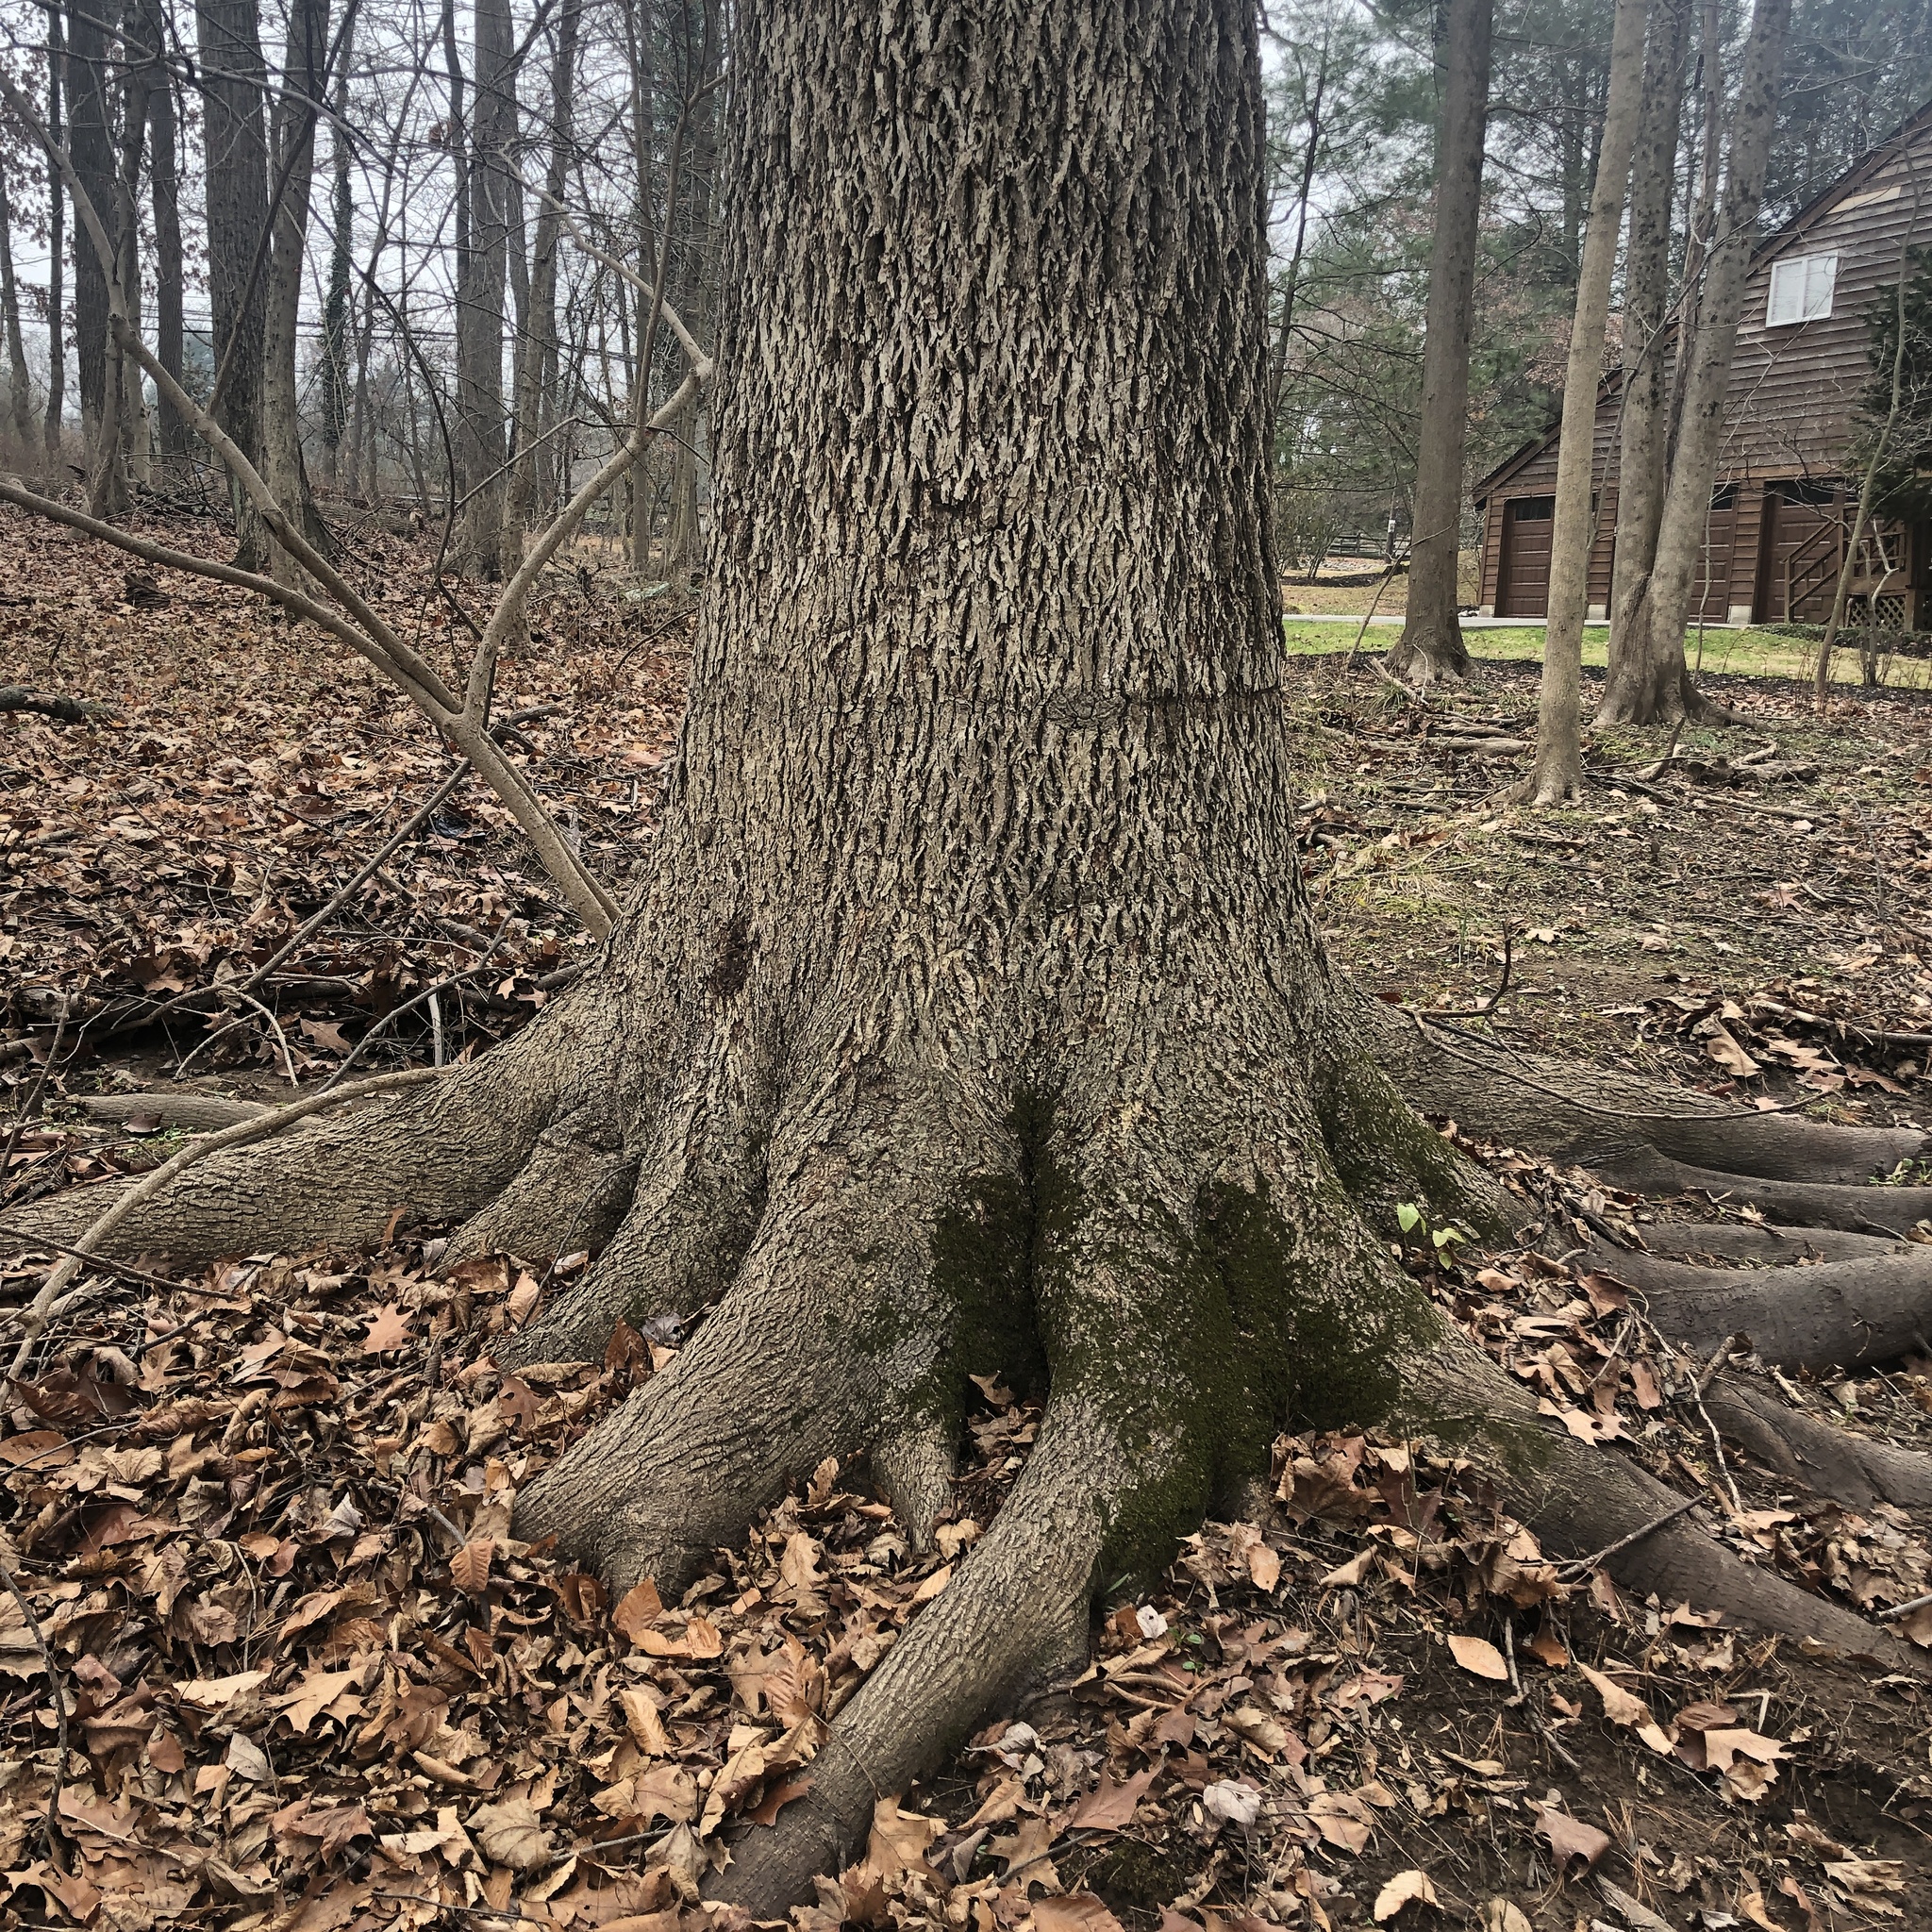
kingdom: Plantae
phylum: Tracheophyta
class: Magnoliopsida
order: Fagales
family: Juglandaceae
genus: Carya
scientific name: Carya cordiformis
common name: Bitternut hickory
